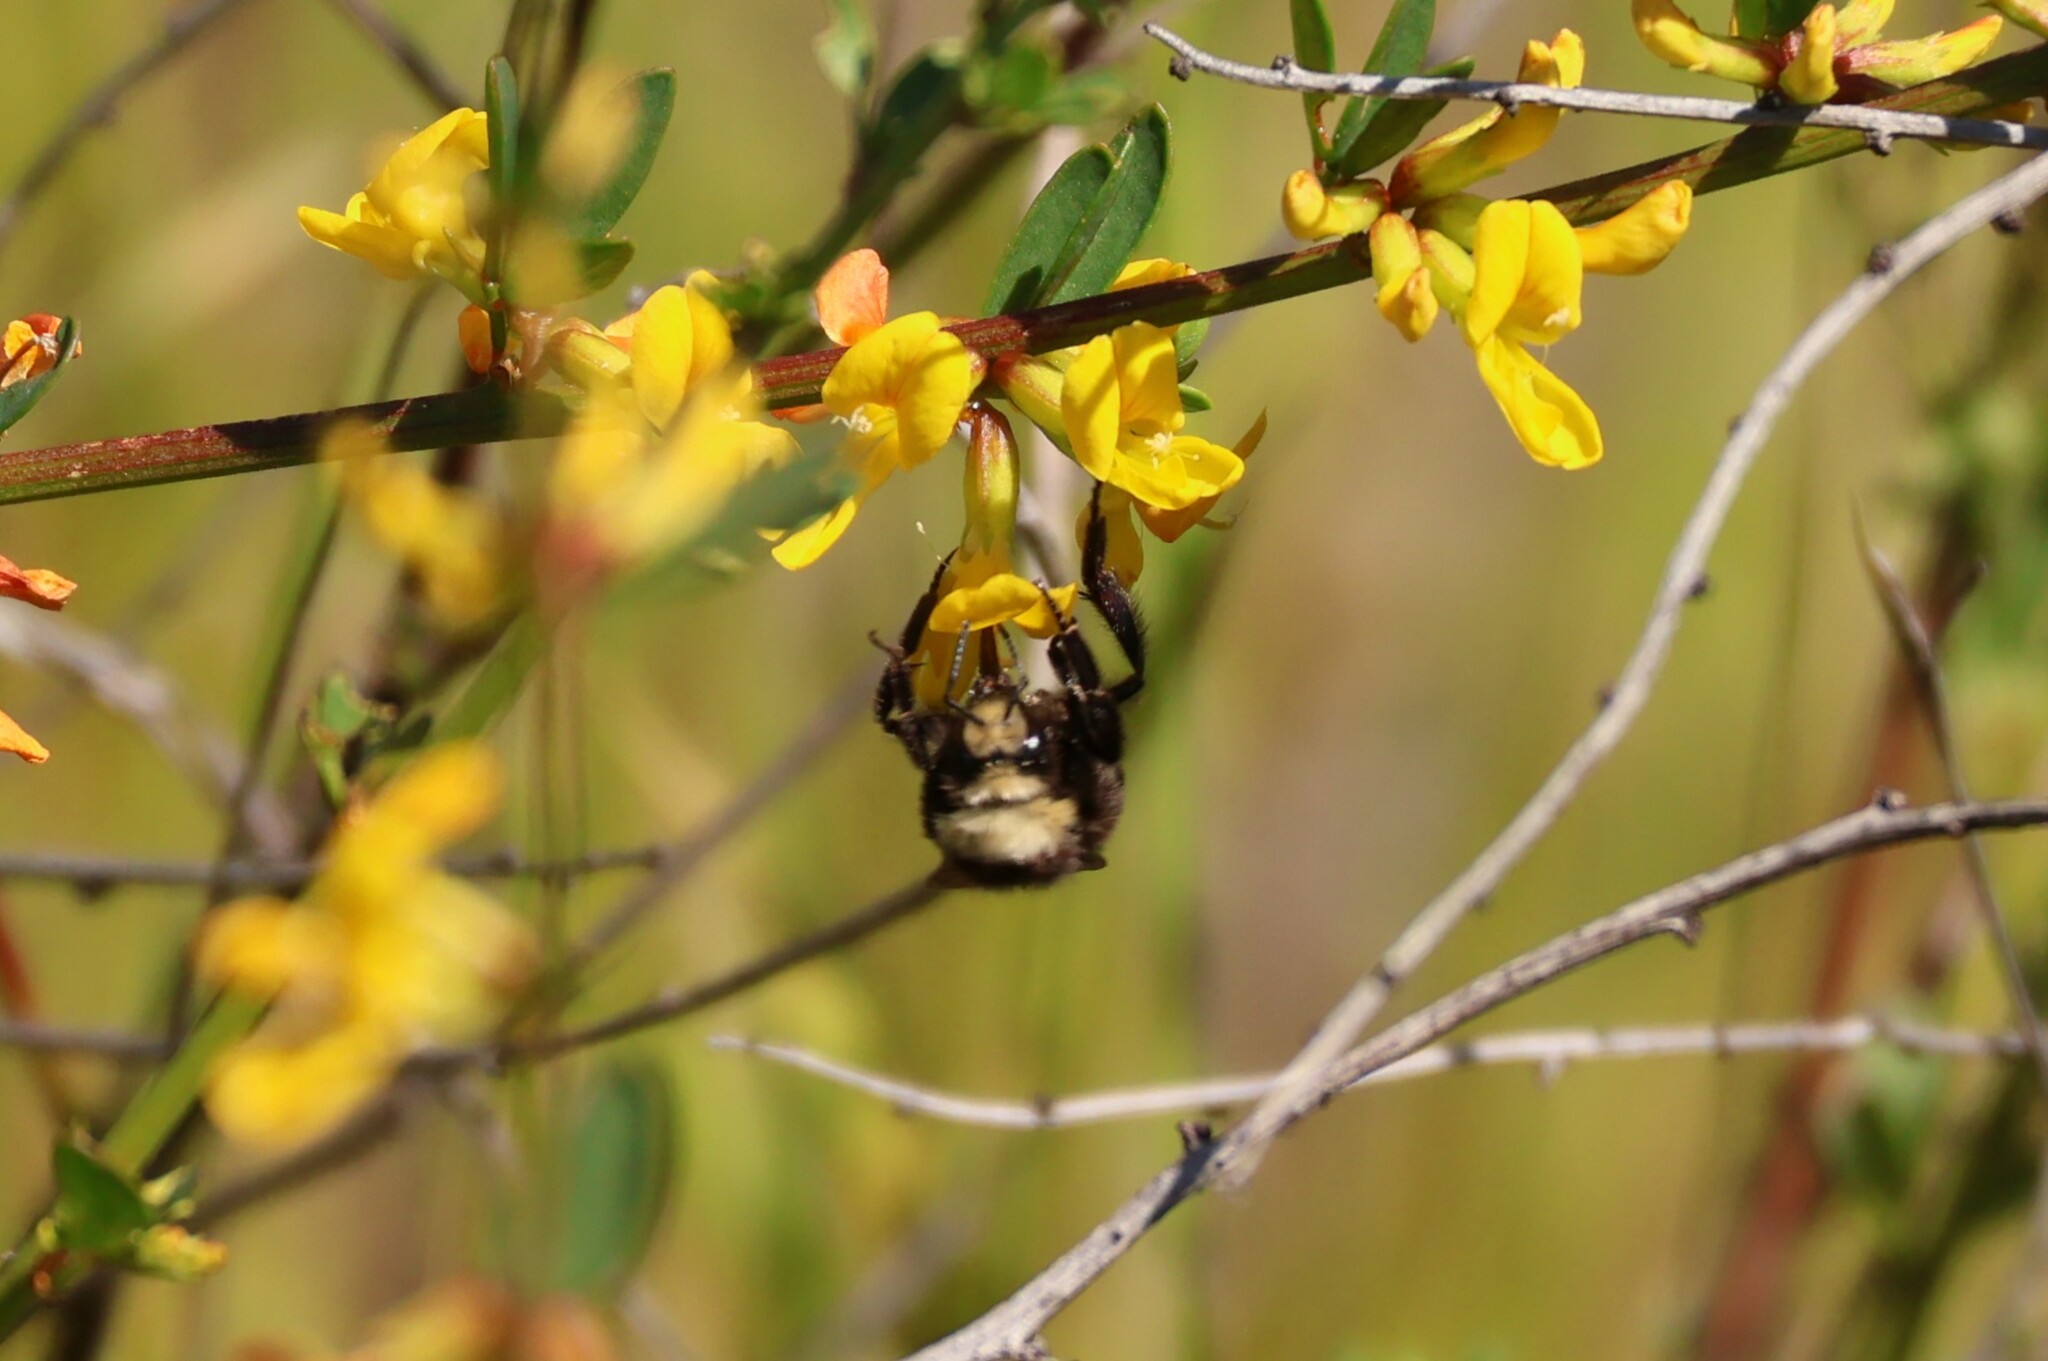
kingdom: Animalia
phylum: Arthropoda
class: Insecta
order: Hymenoptera
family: Apidae
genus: Bombus
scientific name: Bombus vosnesenskii
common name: Vosnesensky bumble bee
